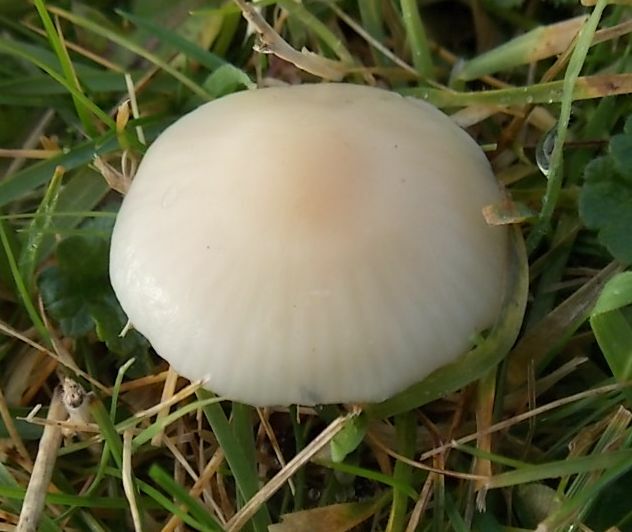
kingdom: Fungi
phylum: Basidiomycota
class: Agaricomycetes
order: Agaricales
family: Hygrophoraceae
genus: Cuphophyllus
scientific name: Cuphophyllus virgineus
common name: Snowy waxcap
